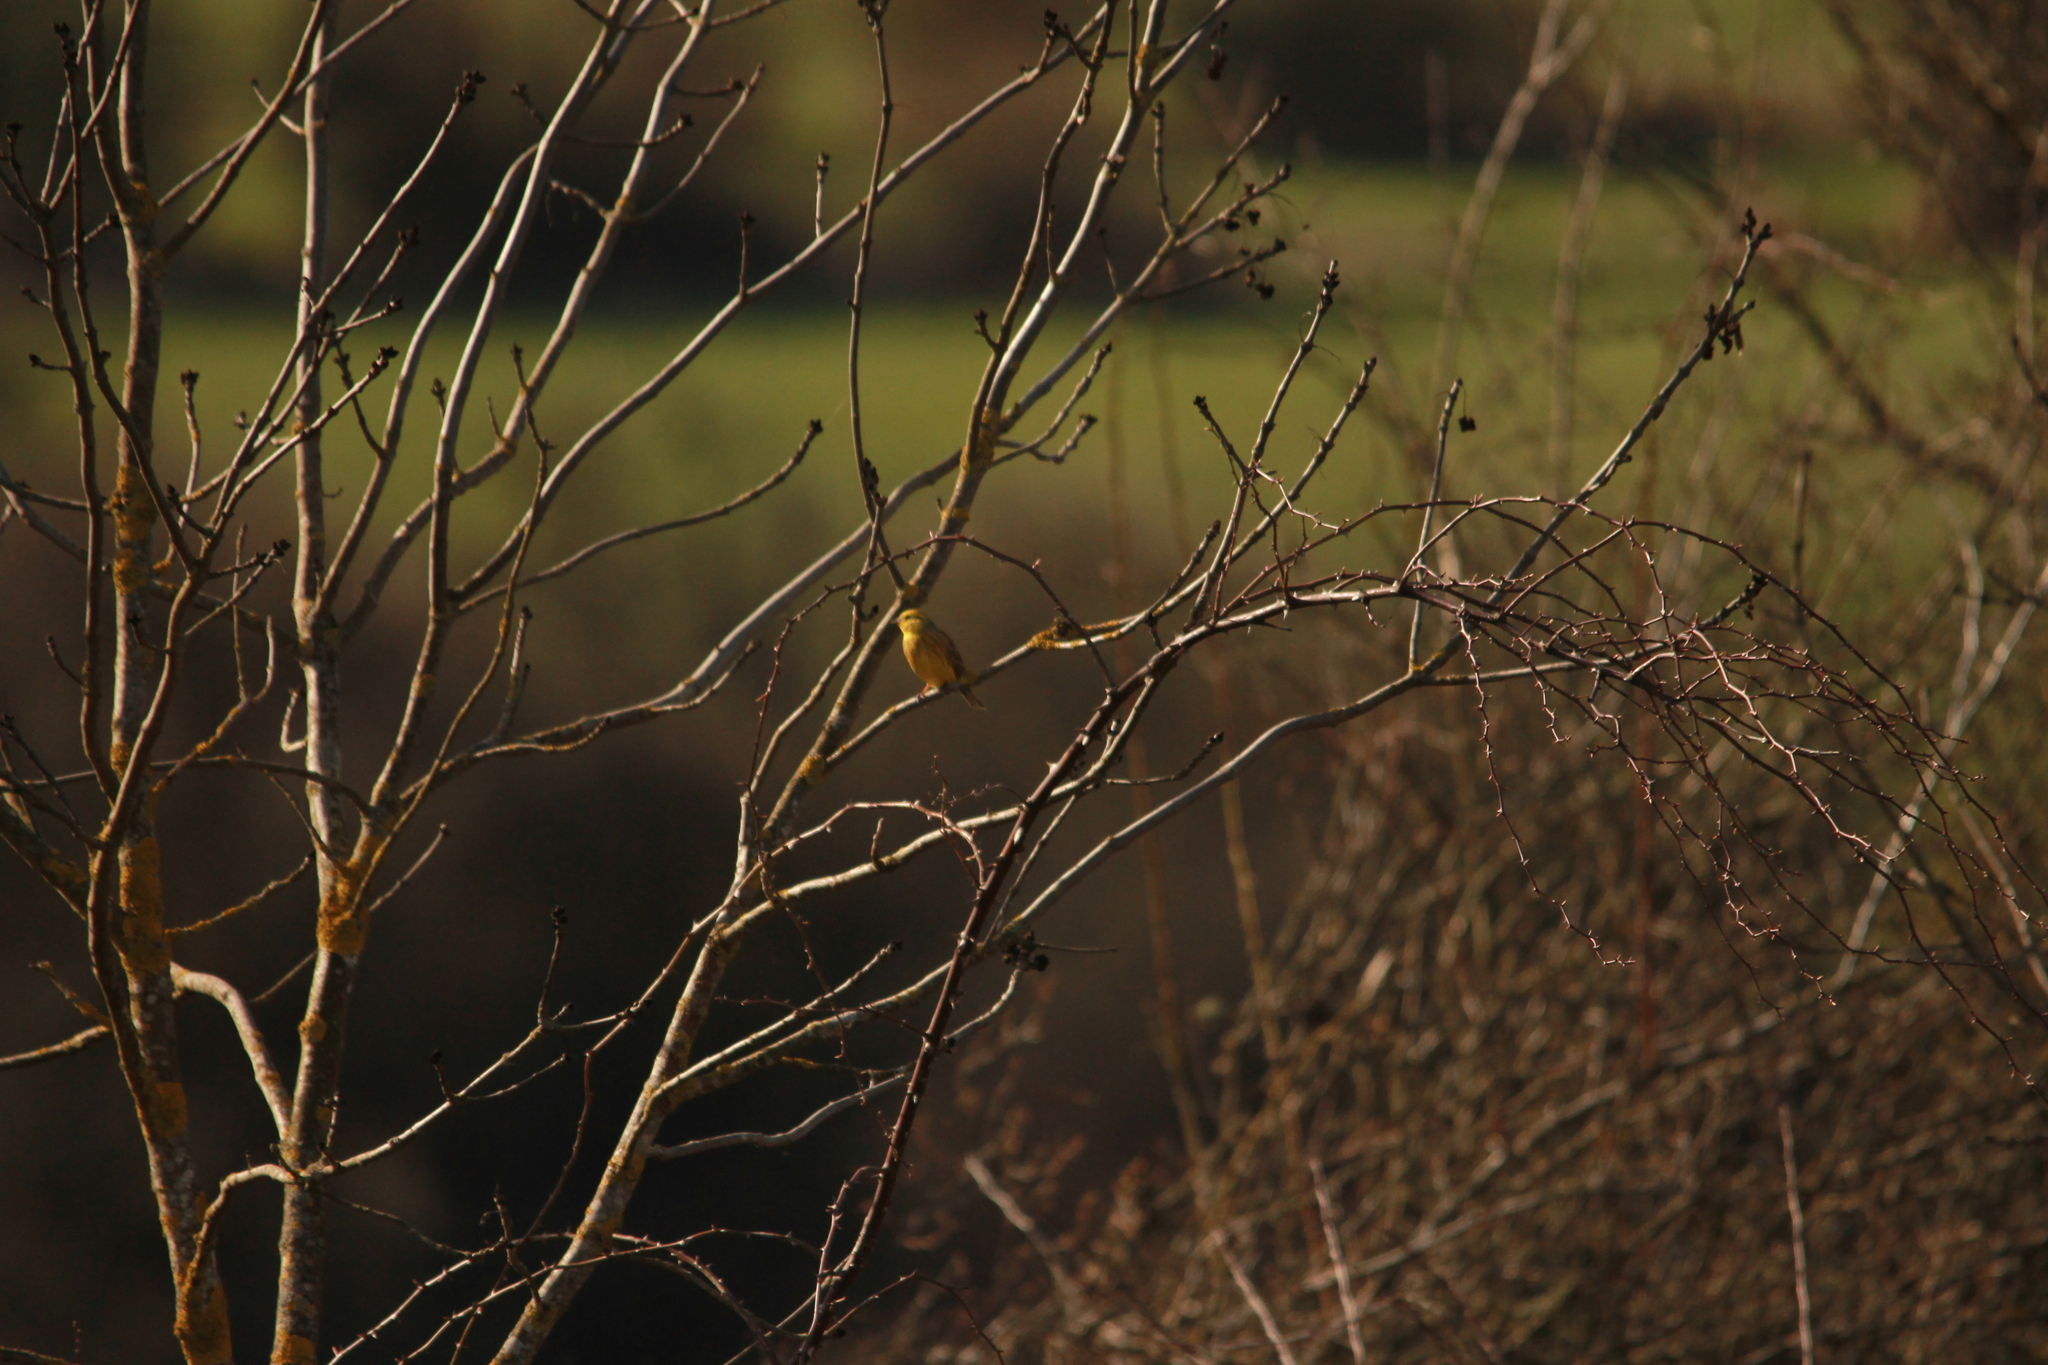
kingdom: Animalia
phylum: Chordata
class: Aves
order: Passeriformes
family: Emberizidae
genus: Emberiza
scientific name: Emberiza citrinella
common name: Yellowhammer
